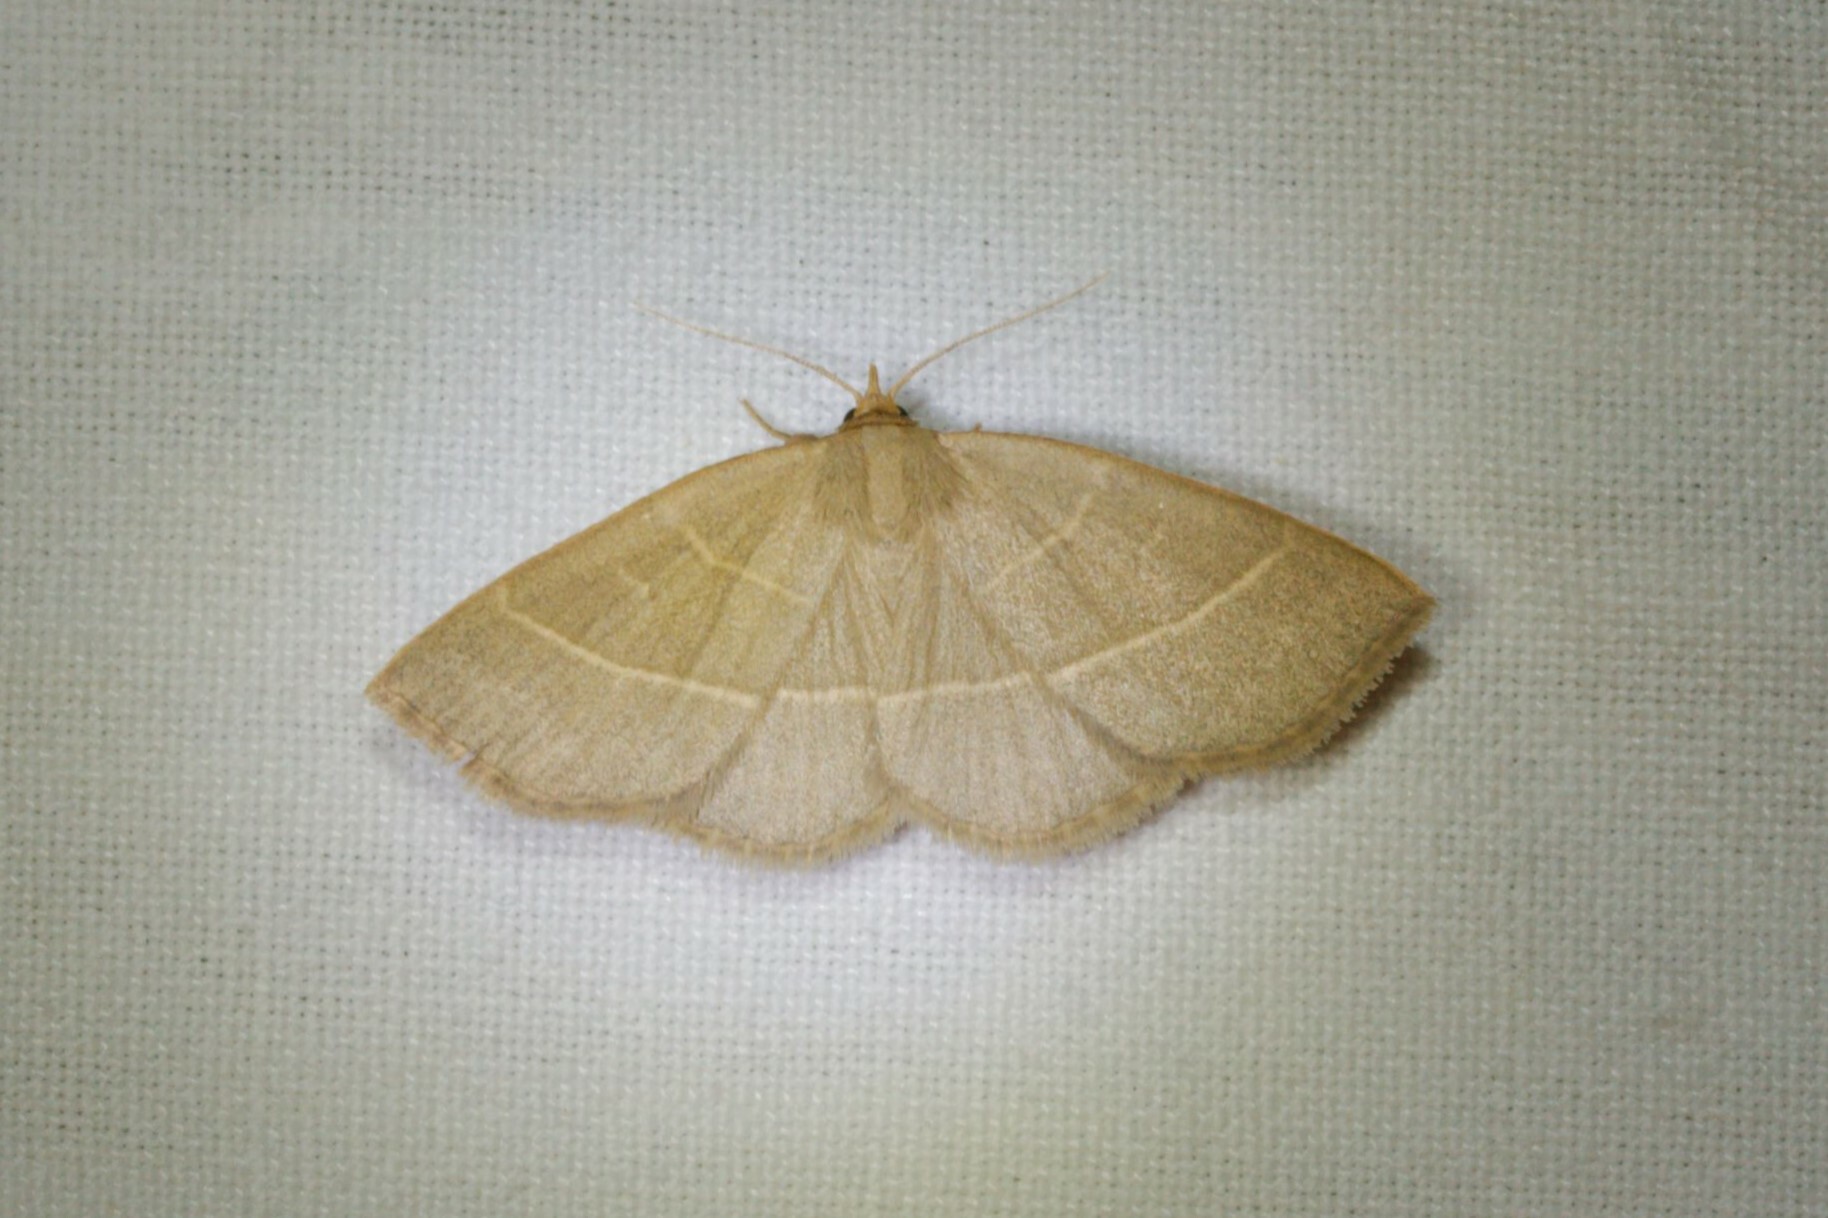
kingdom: Animalia
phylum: Arthropoda
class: Insecta
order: Lepidoptera
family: Erebidae
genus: Trisateles
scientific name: Trisateles emortualis
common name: Olive crescent
